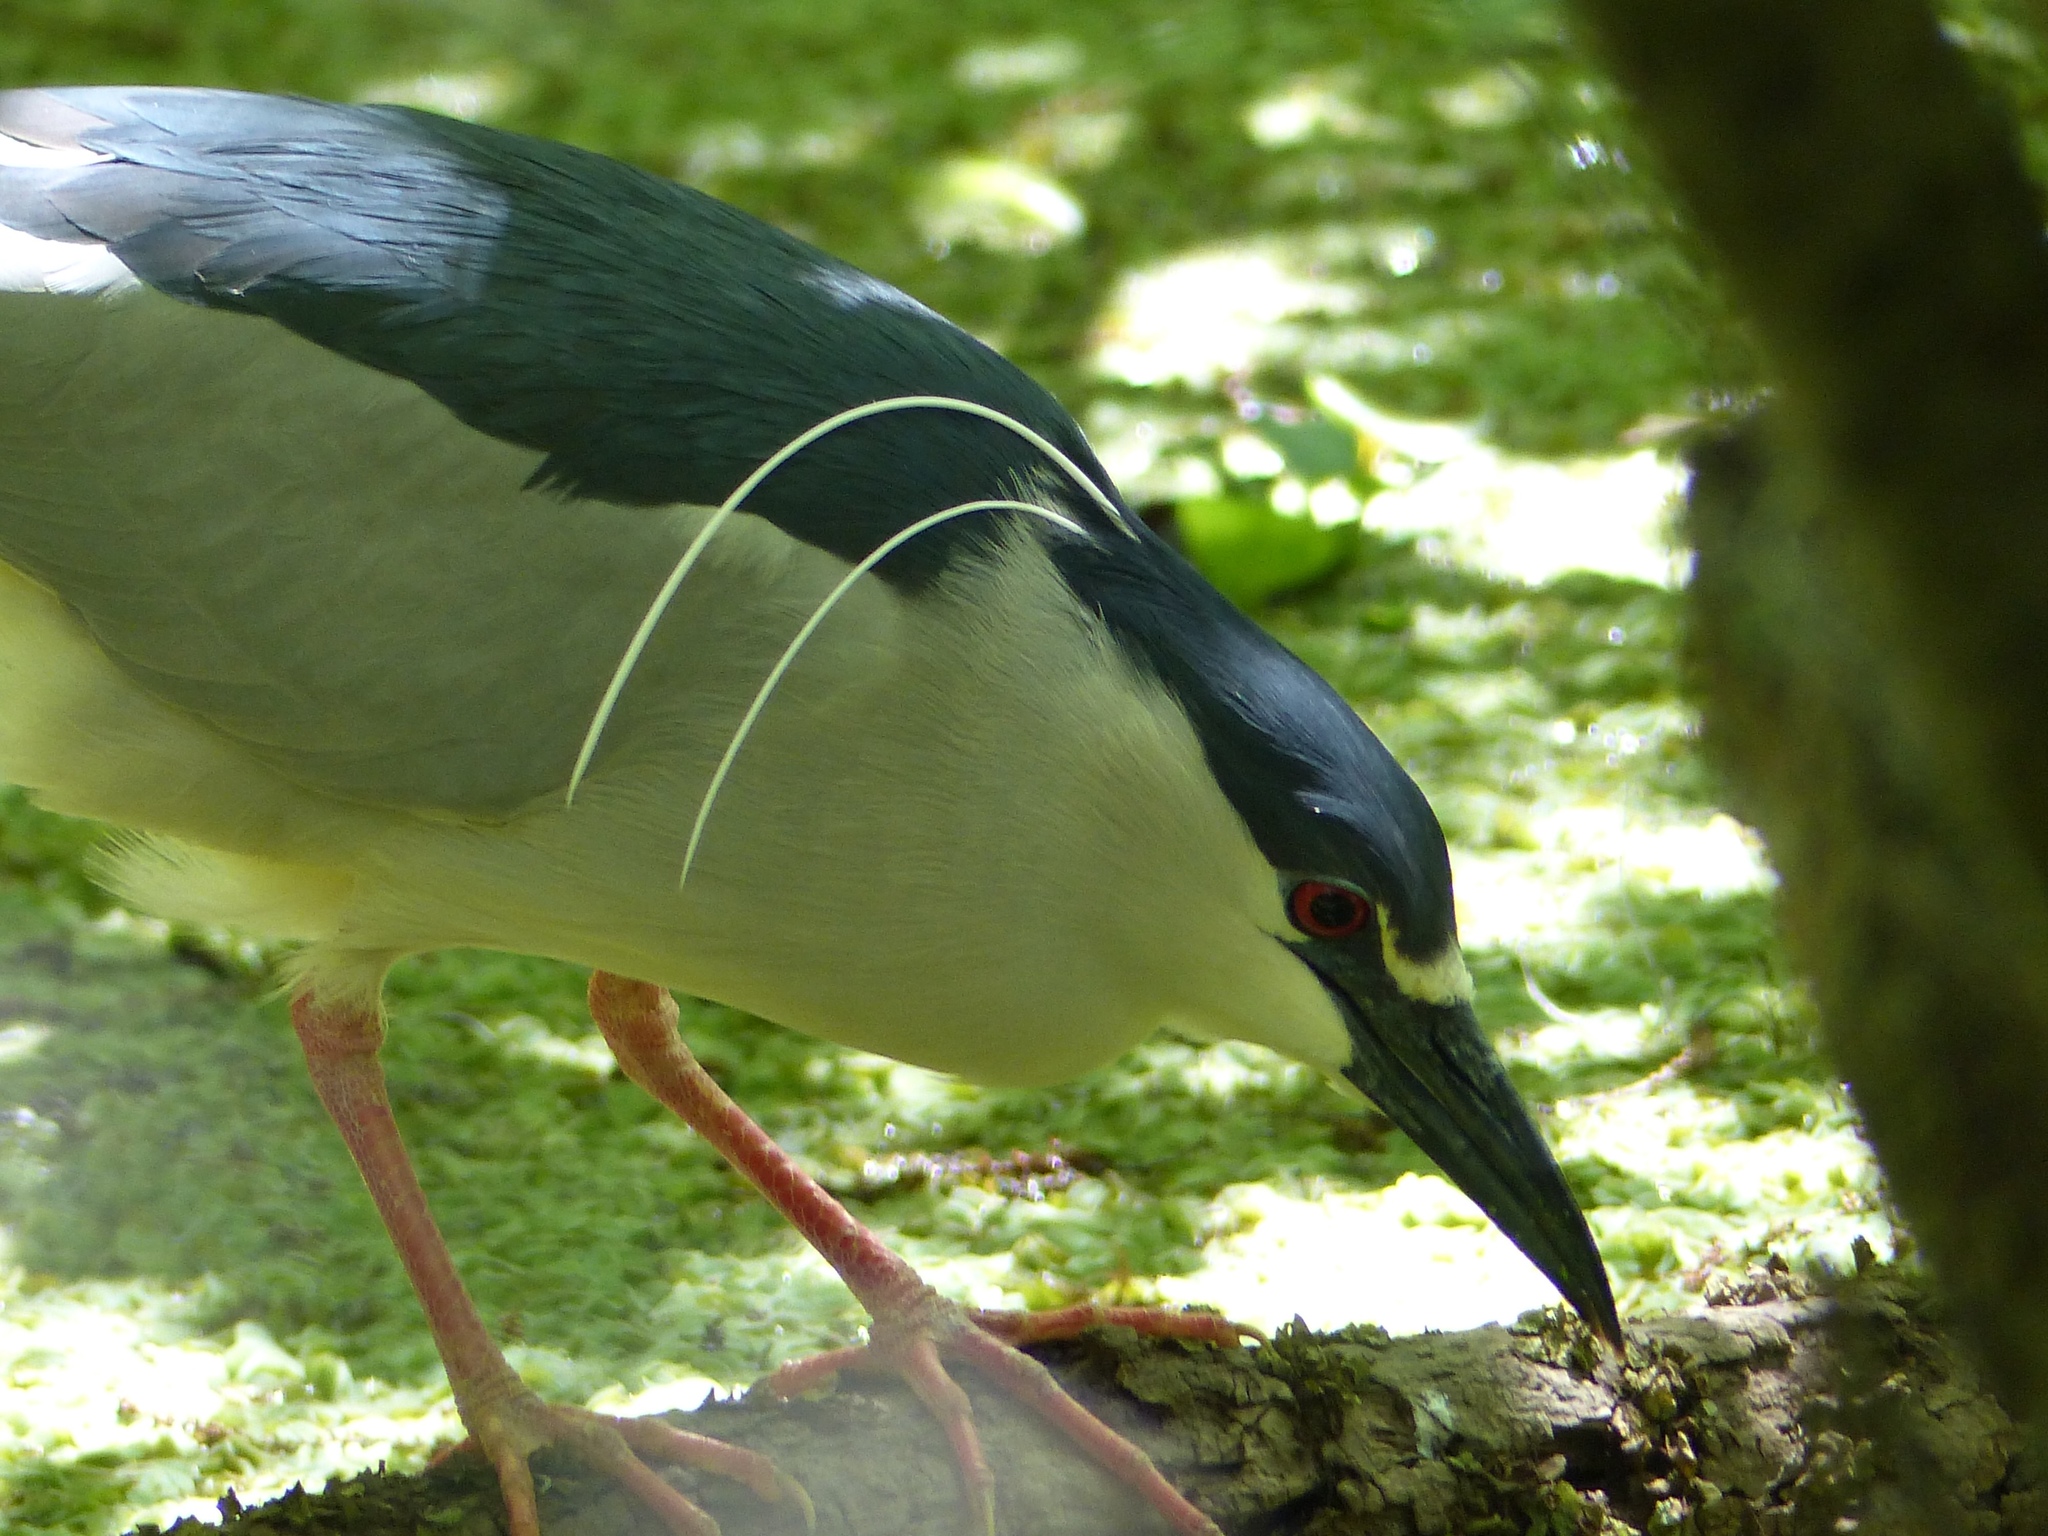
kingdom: Animalia
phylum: Chordata
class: Aves
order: Pelecaniformes
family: Ardeidae
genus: Nycticorax
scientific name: Nycticorax nycticorax
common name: Black-crowned night heron
